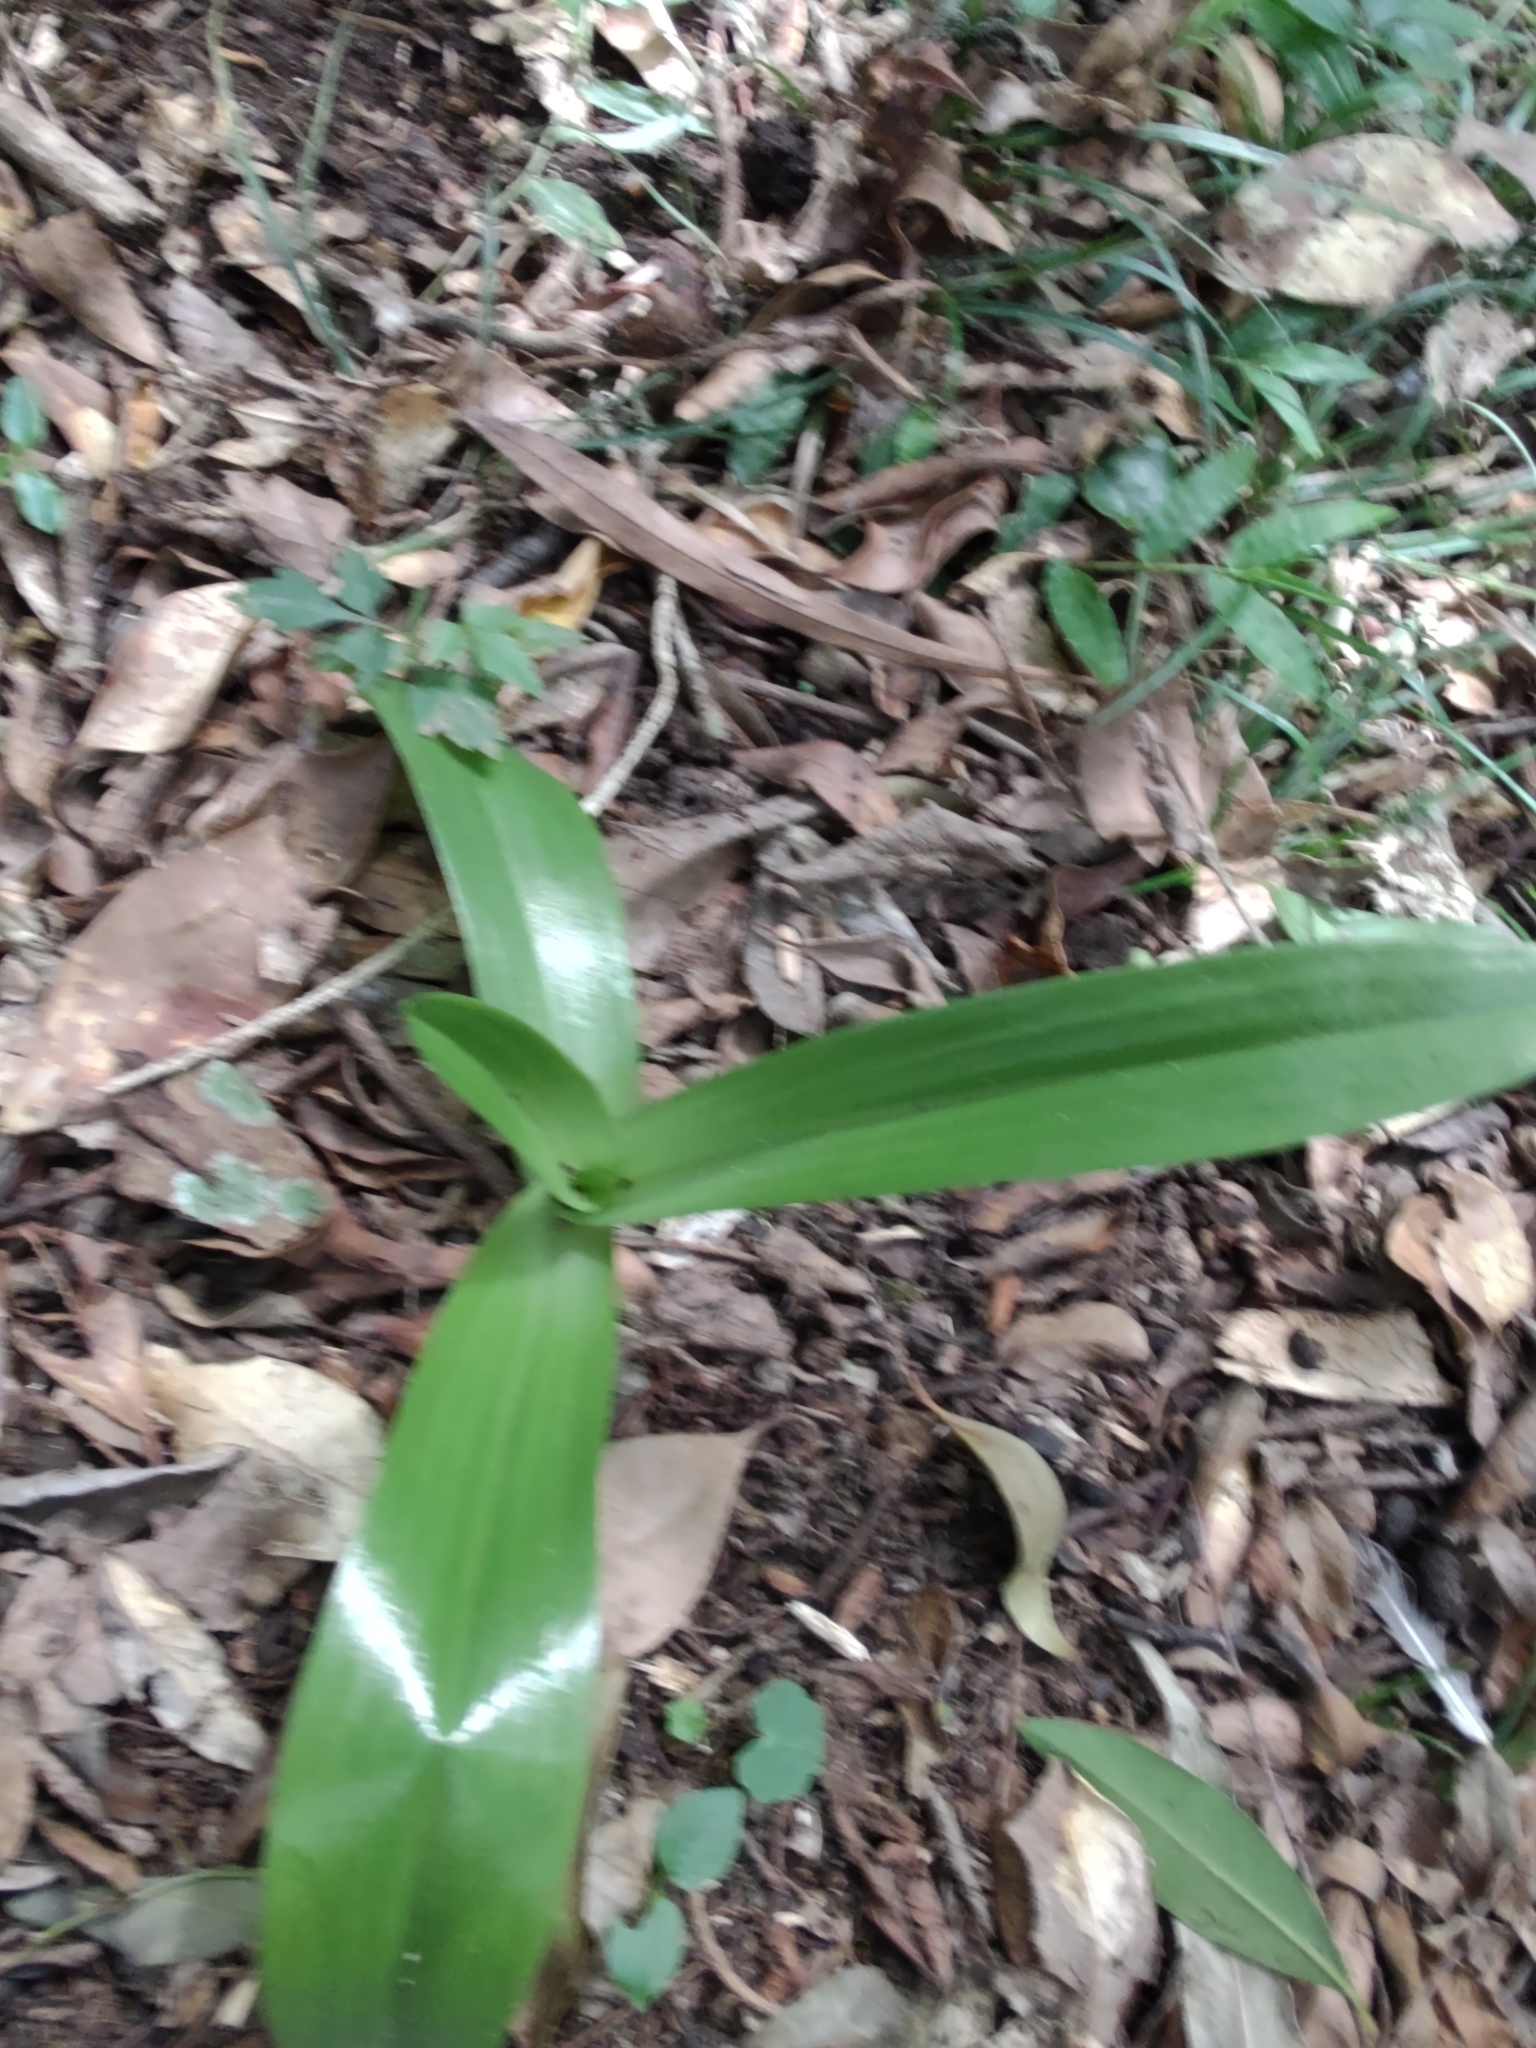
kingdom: Plantae
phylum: Tracheophyta
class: Liliopsida
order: Asparagales
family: Orchidaceae
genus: Chloraea
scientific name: Chloraea membranacea
